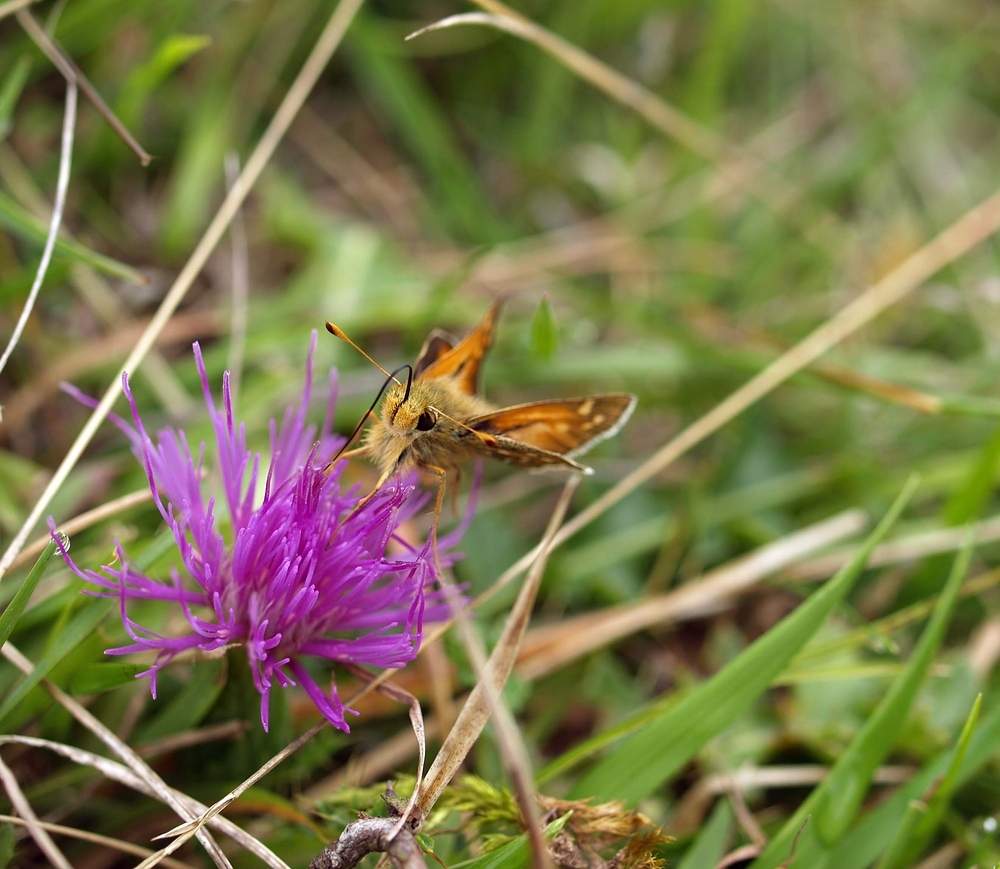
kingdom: Animalia
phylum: Arthropoda
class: Insecta
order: Lepidoptera
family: Hesperiidae
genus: Hesperia
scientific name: Hesperia comma
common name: Common branded skipper
